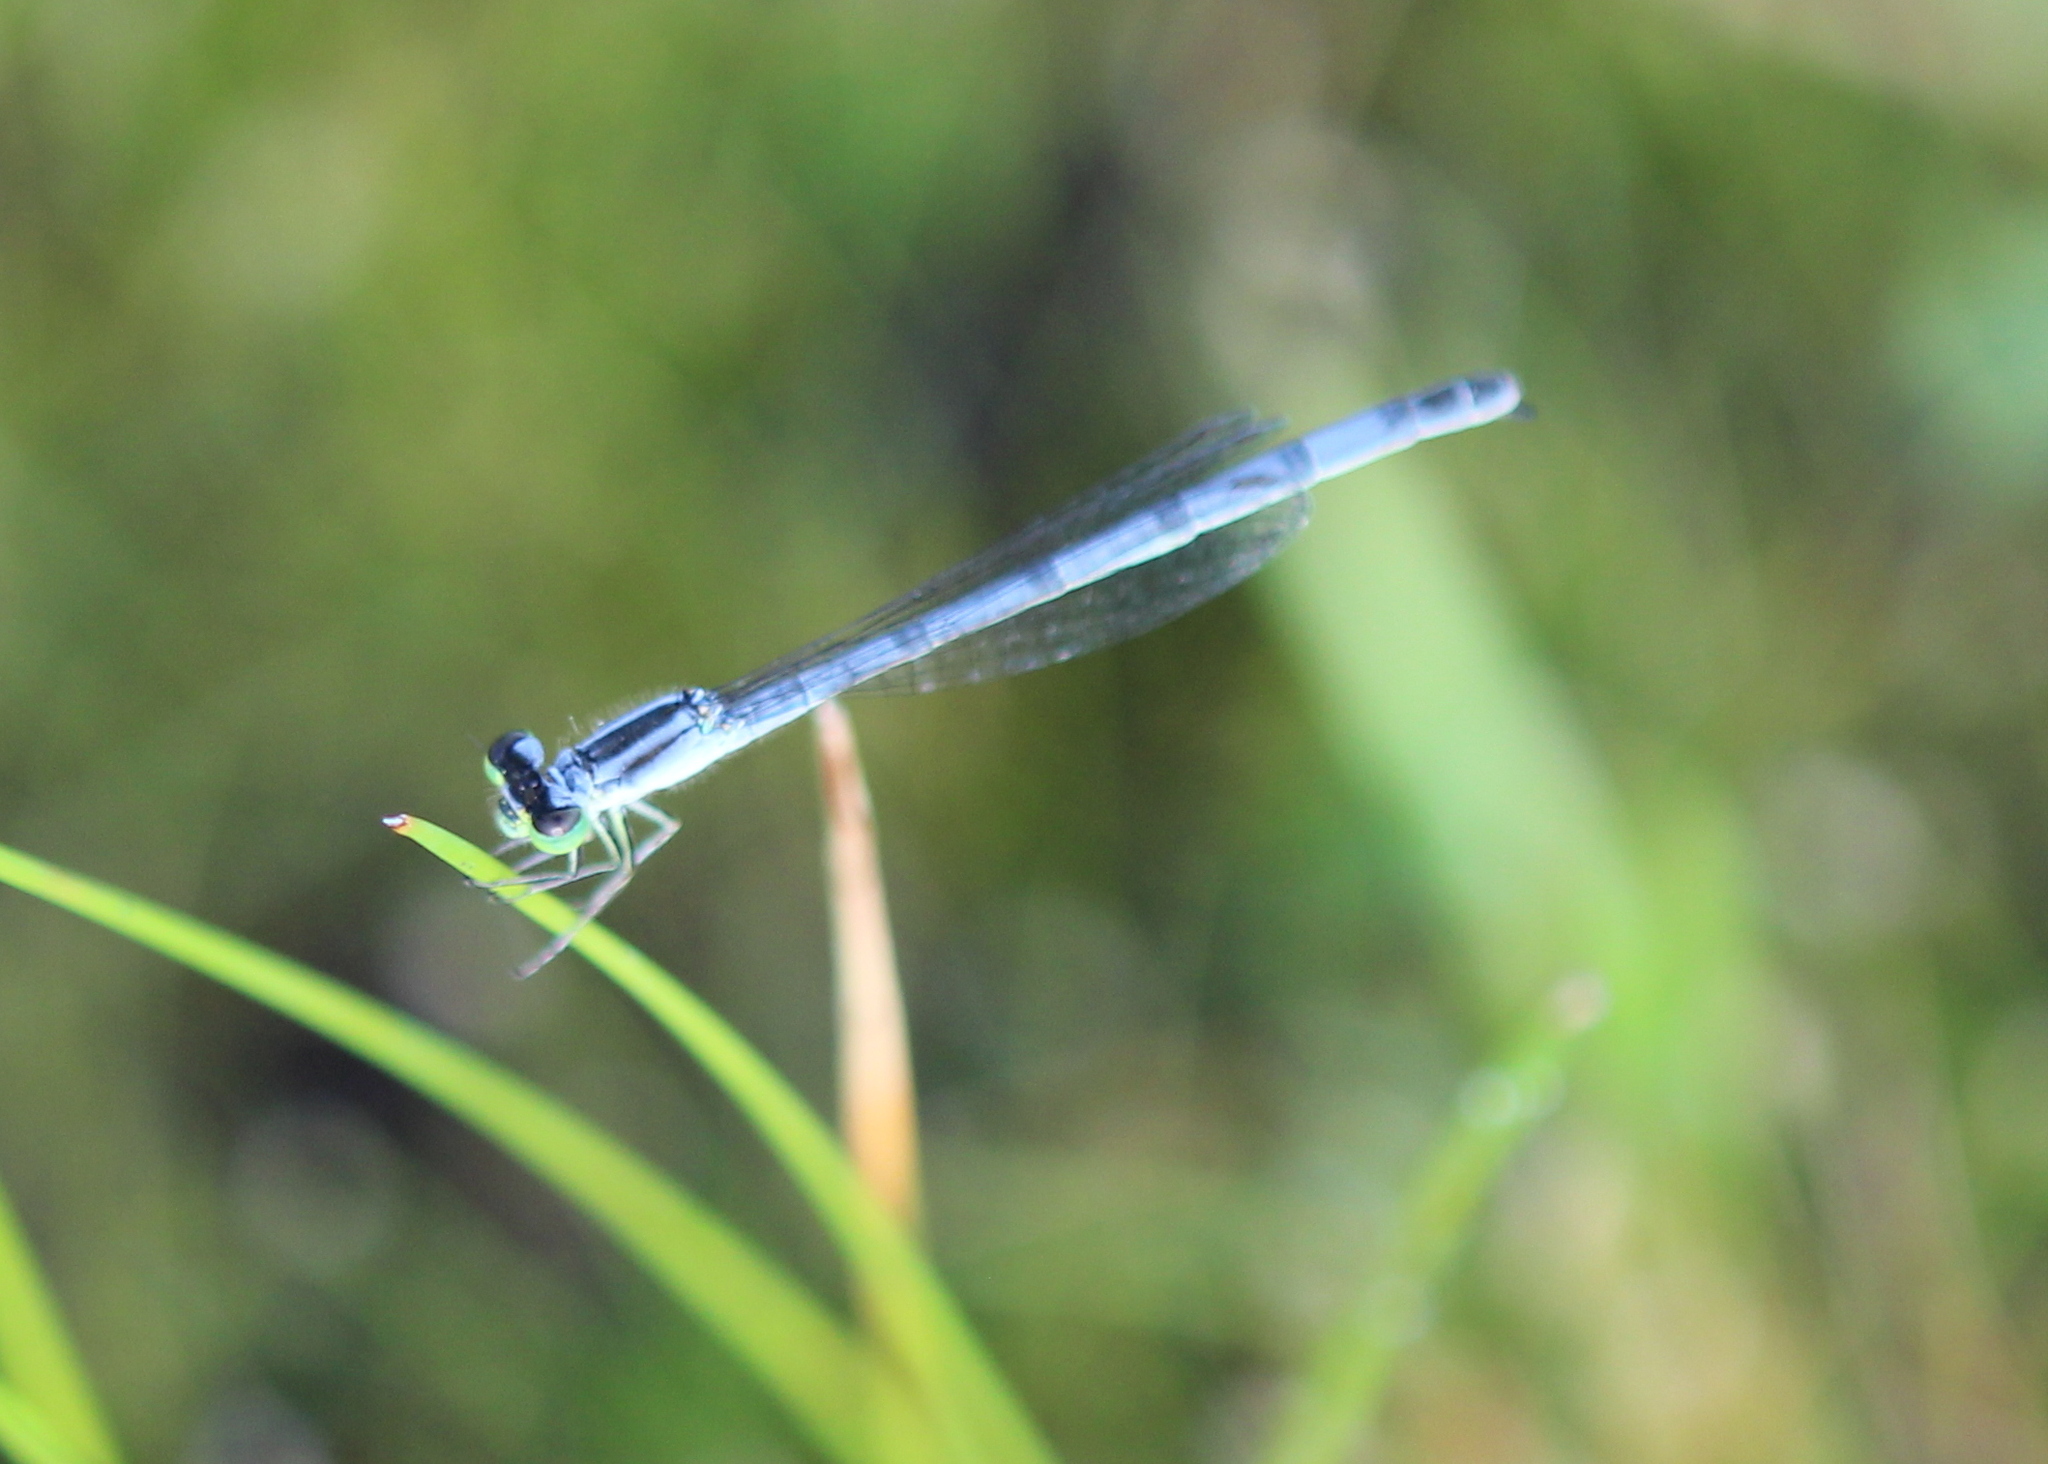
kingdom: Animalia
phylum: Arthropoda
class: Insecta
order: Odonata
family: Coenagrionidae
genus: Ischnura
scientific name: Ischnura verticalis
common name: Eastern forktail
